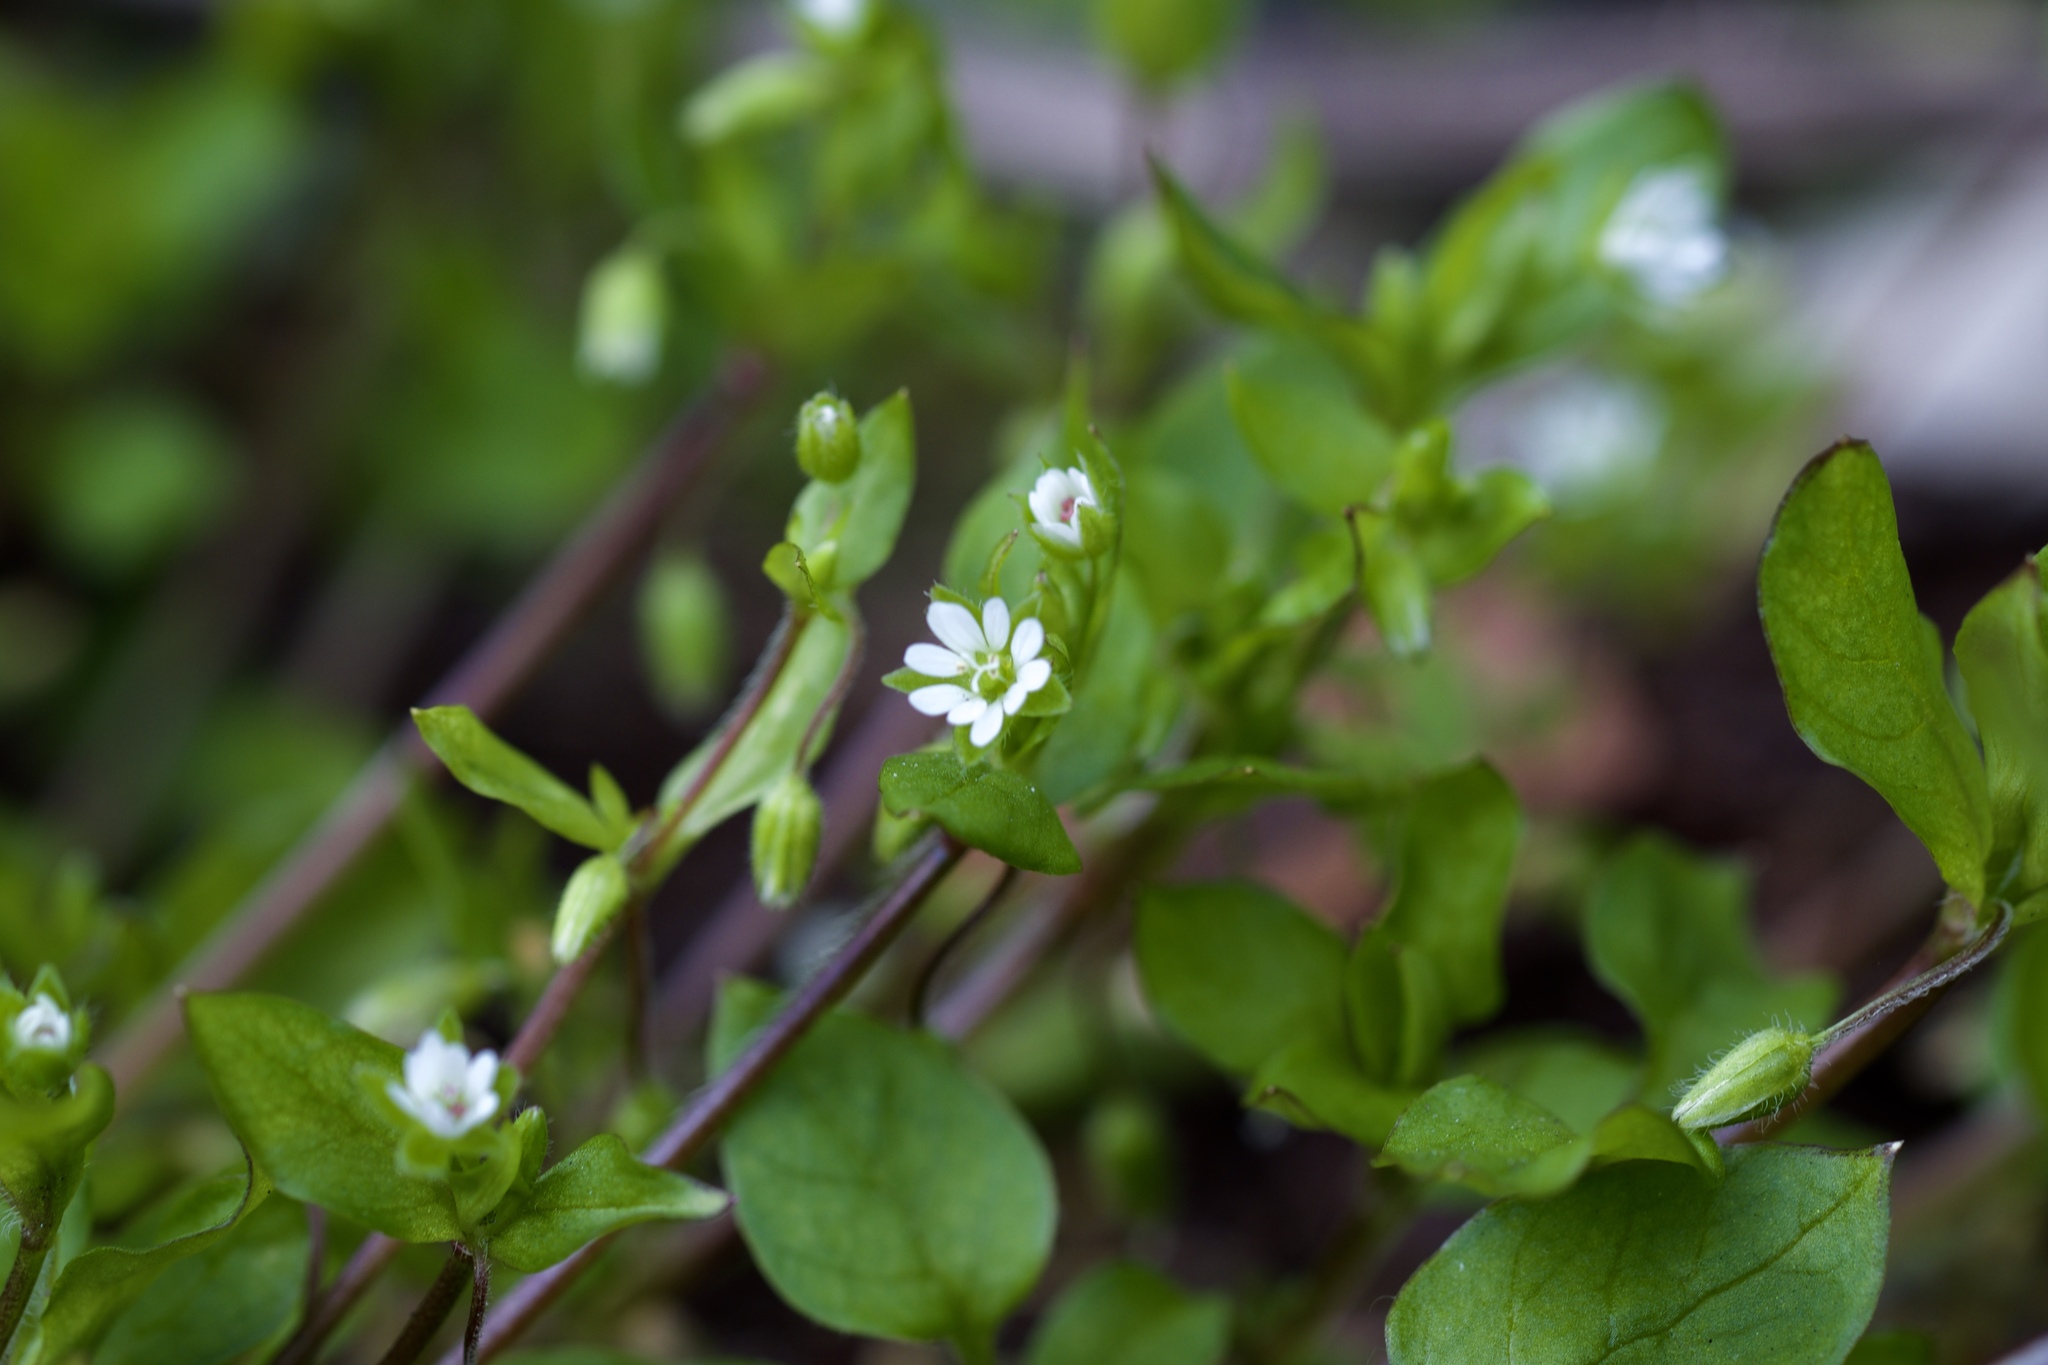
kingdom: Plantae
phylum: Tracheophyta
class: Magnoliopsida
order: Caryophyllales
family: Caryophyllaceae
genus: Stellaria
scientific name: Stellaria media
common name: Common chickweed
